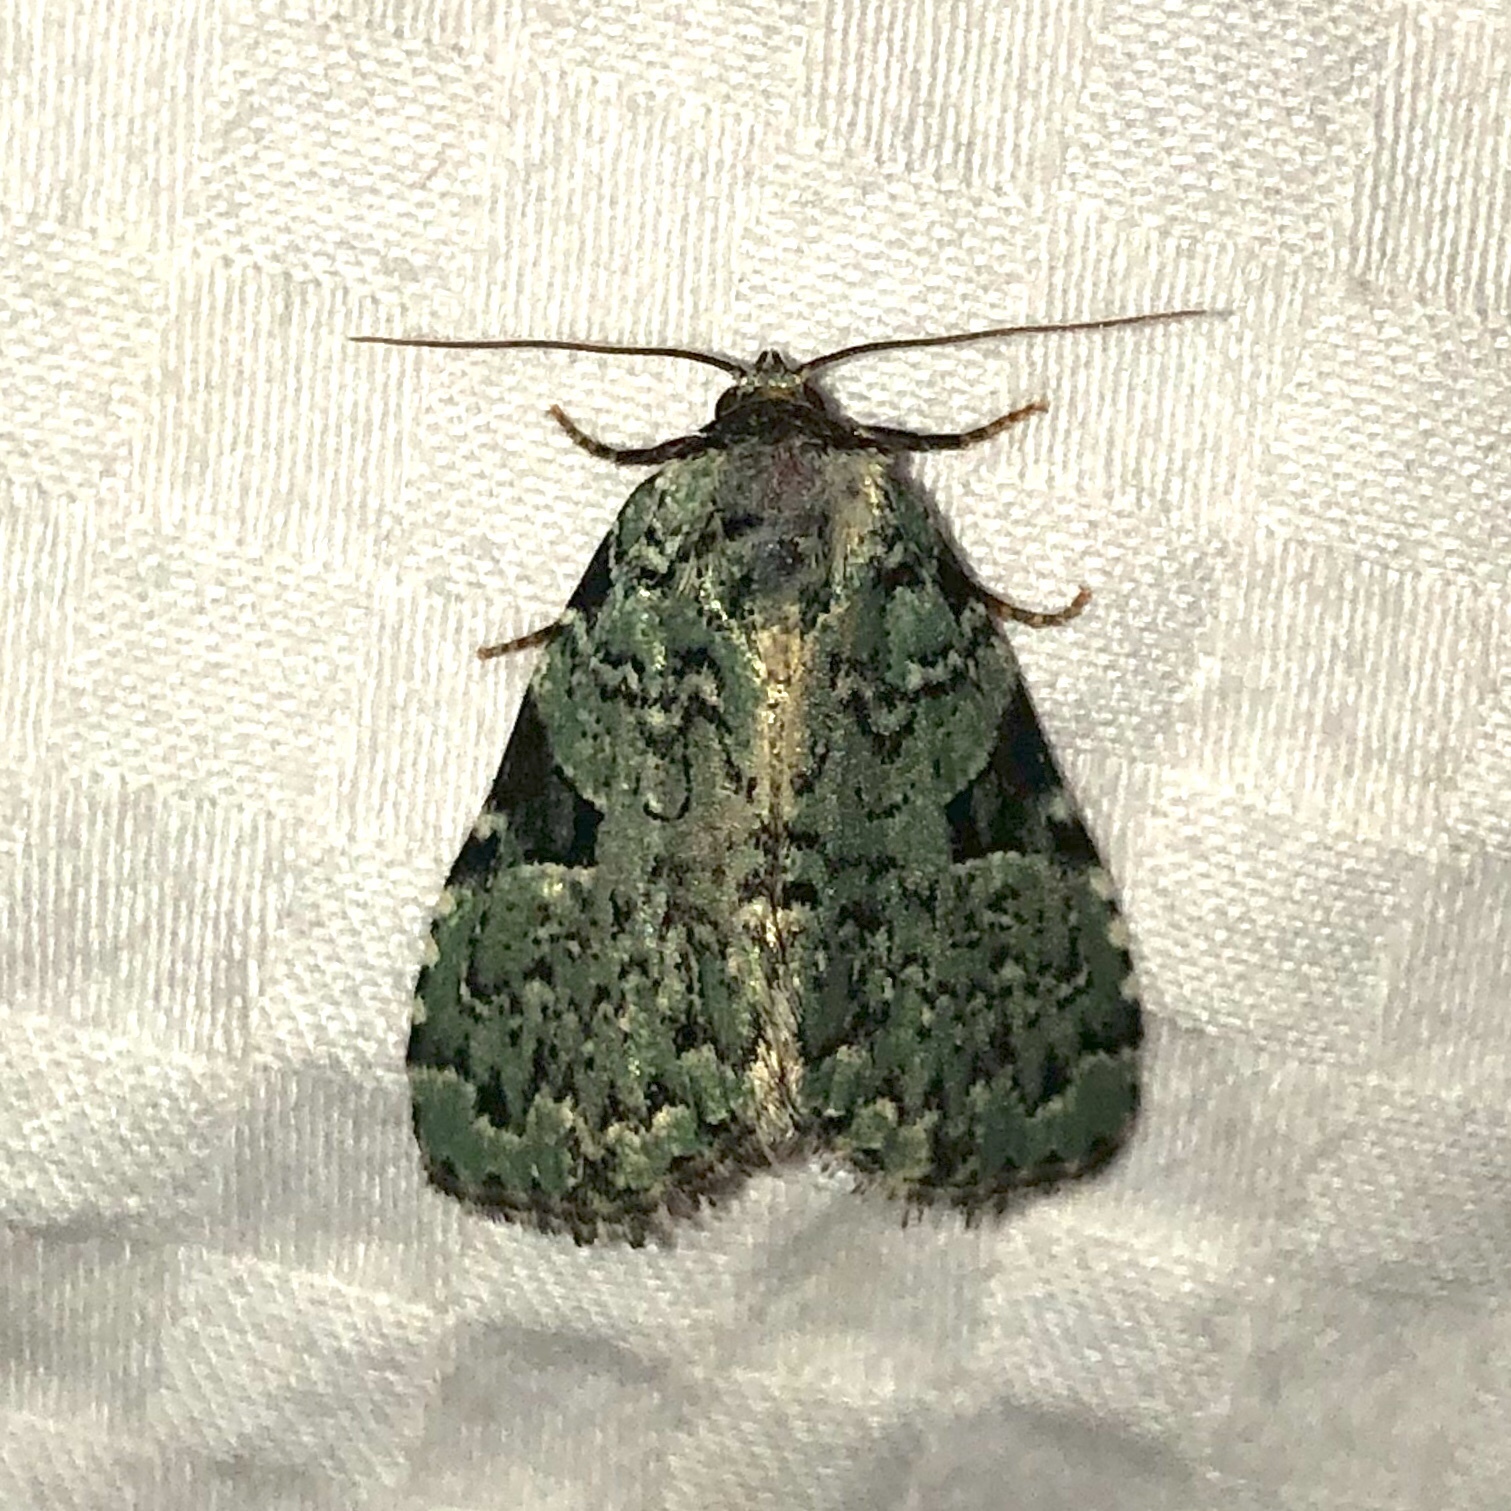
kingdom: Animalia
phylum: Arthropoda
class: Insecta
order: Lepidoptera
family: Noctuidae
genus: Leuconycta
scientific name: Leuconycta diphteroides
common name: Green leuconycta moth
